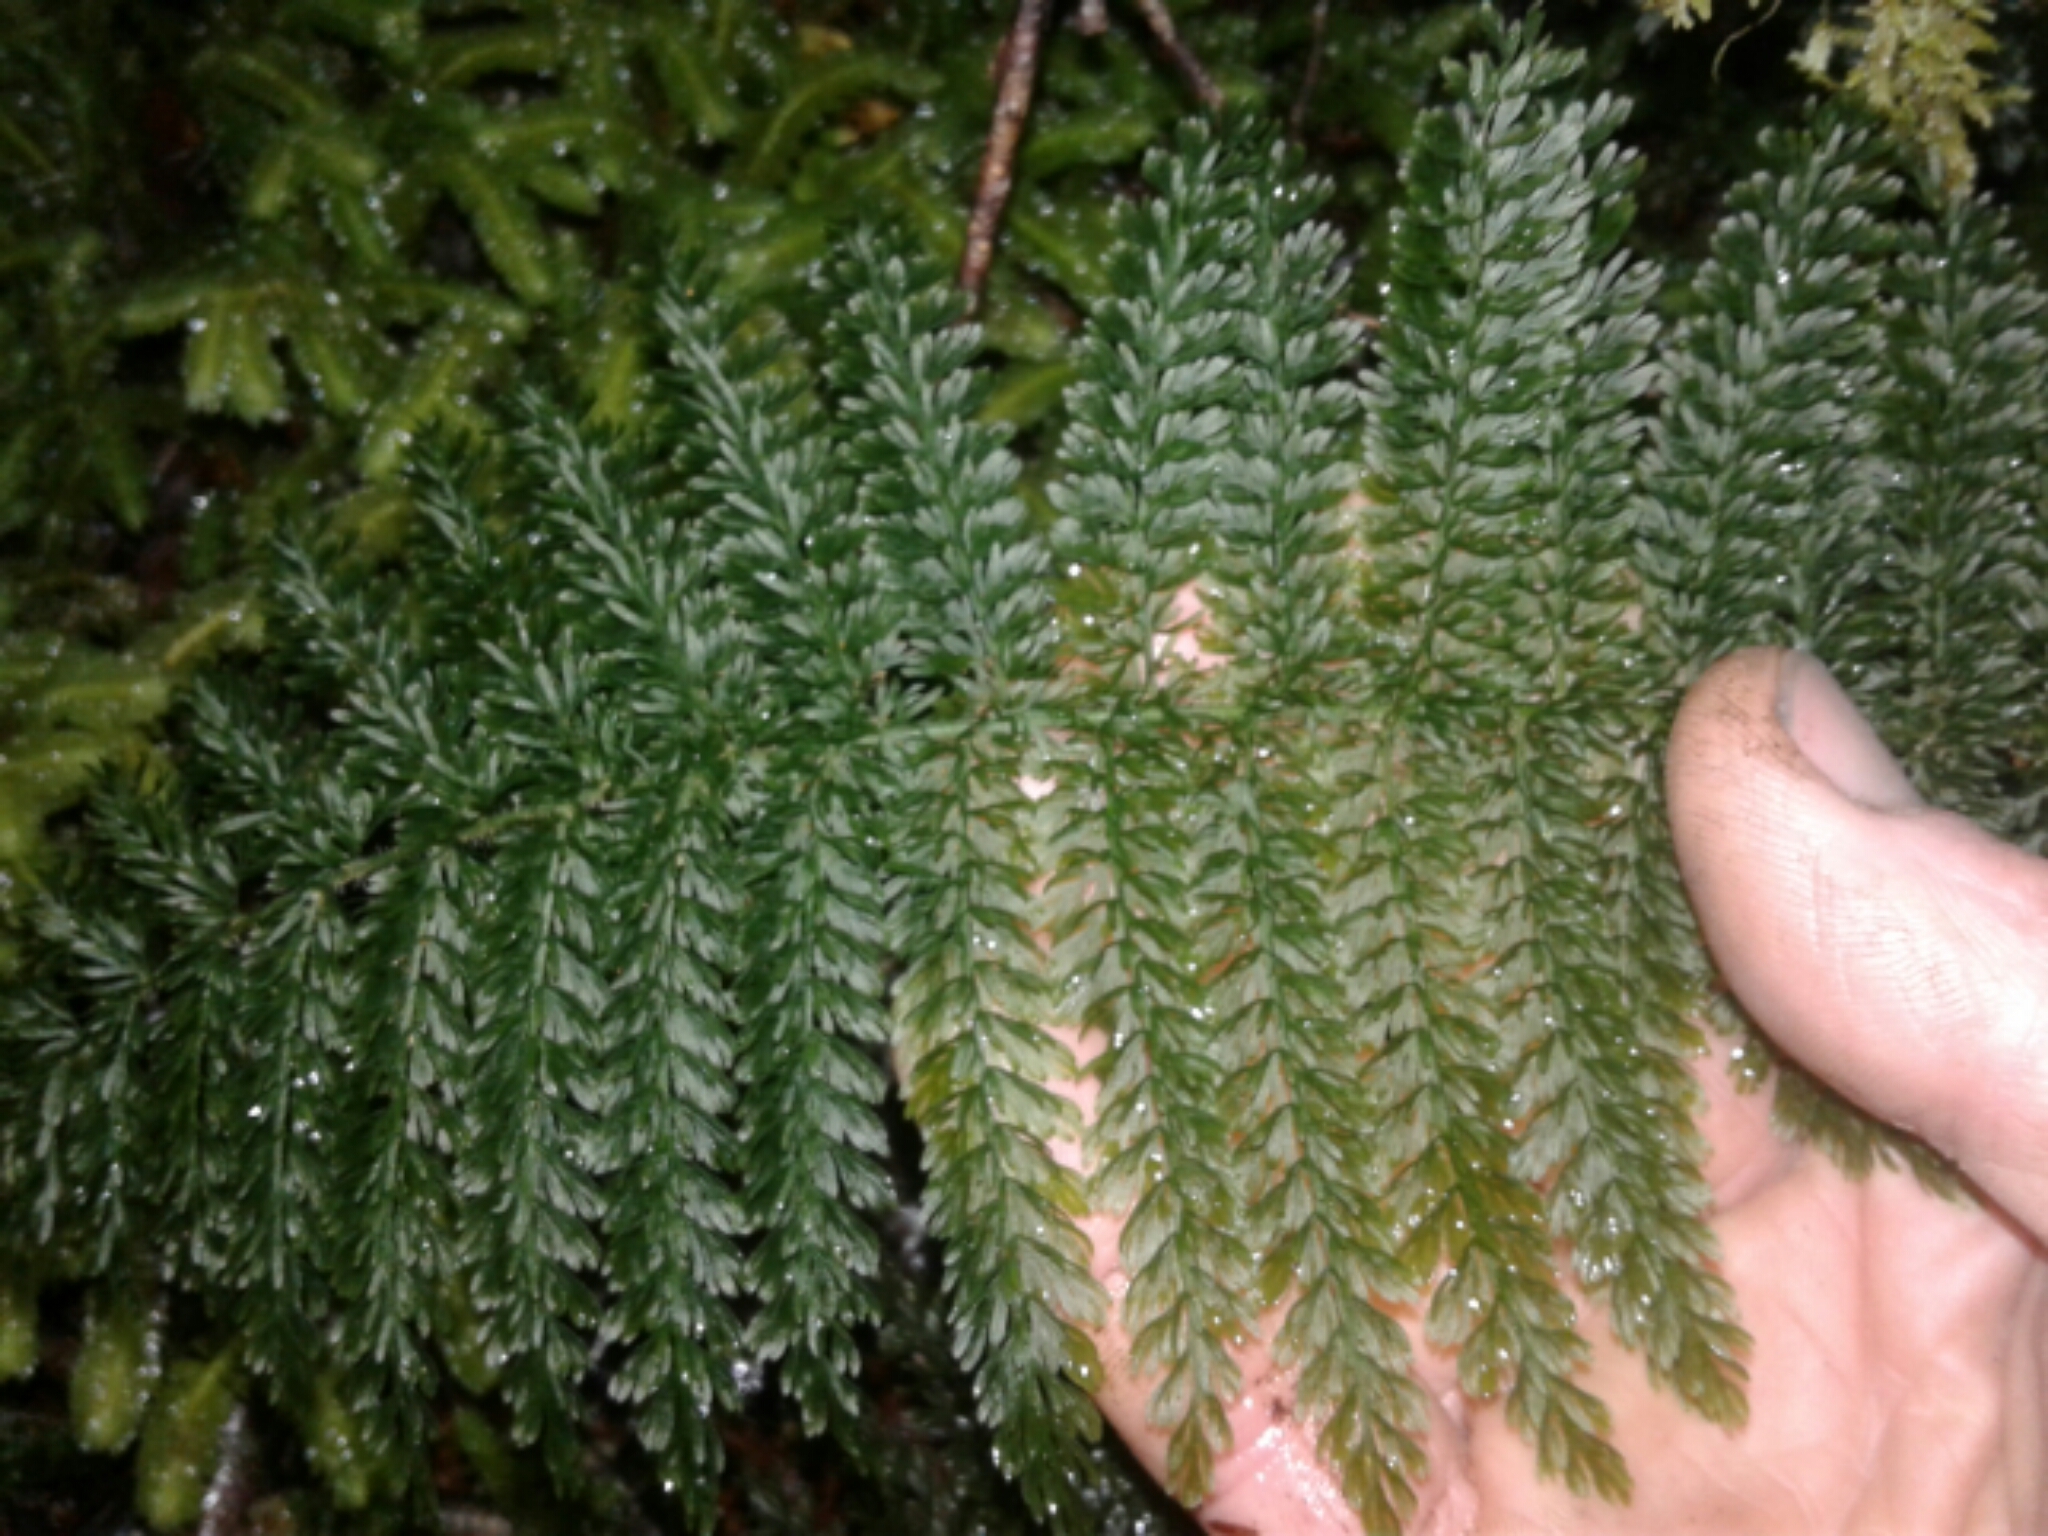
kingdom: Plantae
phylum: Tracheophyta
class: Polypodiopsida
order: Osmundales
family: Osmundaceae
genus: Leptopteris
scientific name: Leptopteris hymenophylloides
